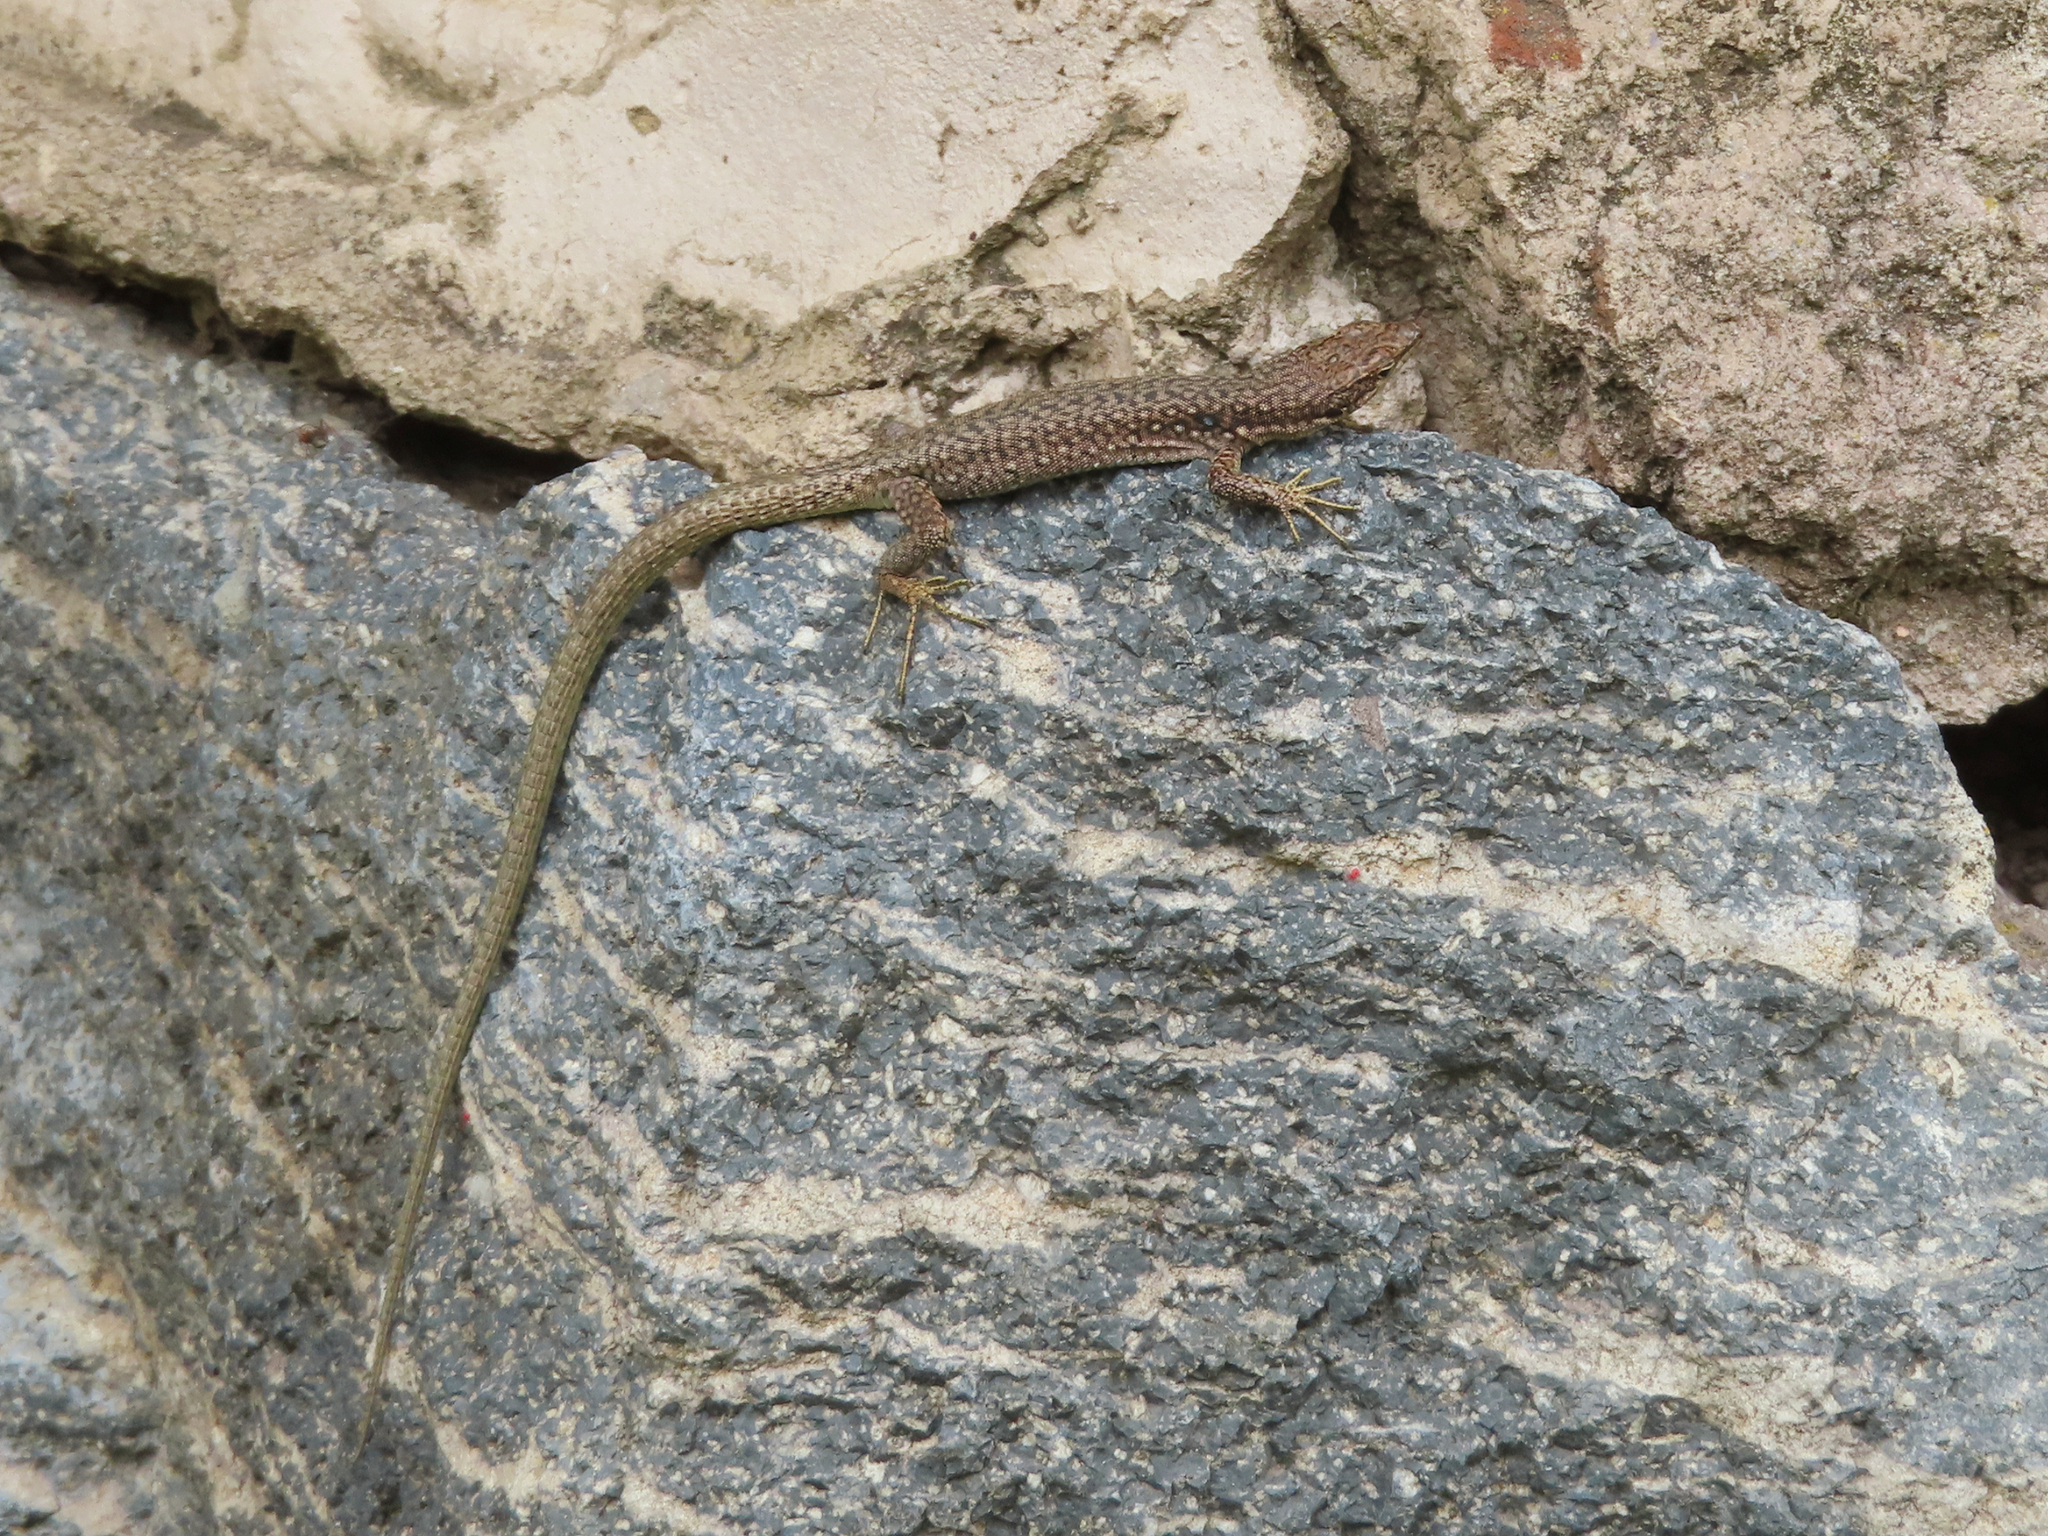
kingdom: Animalia
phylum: Chordata
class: Squamata
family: Lacertidae
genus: Darevskia
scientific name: Darevskia
